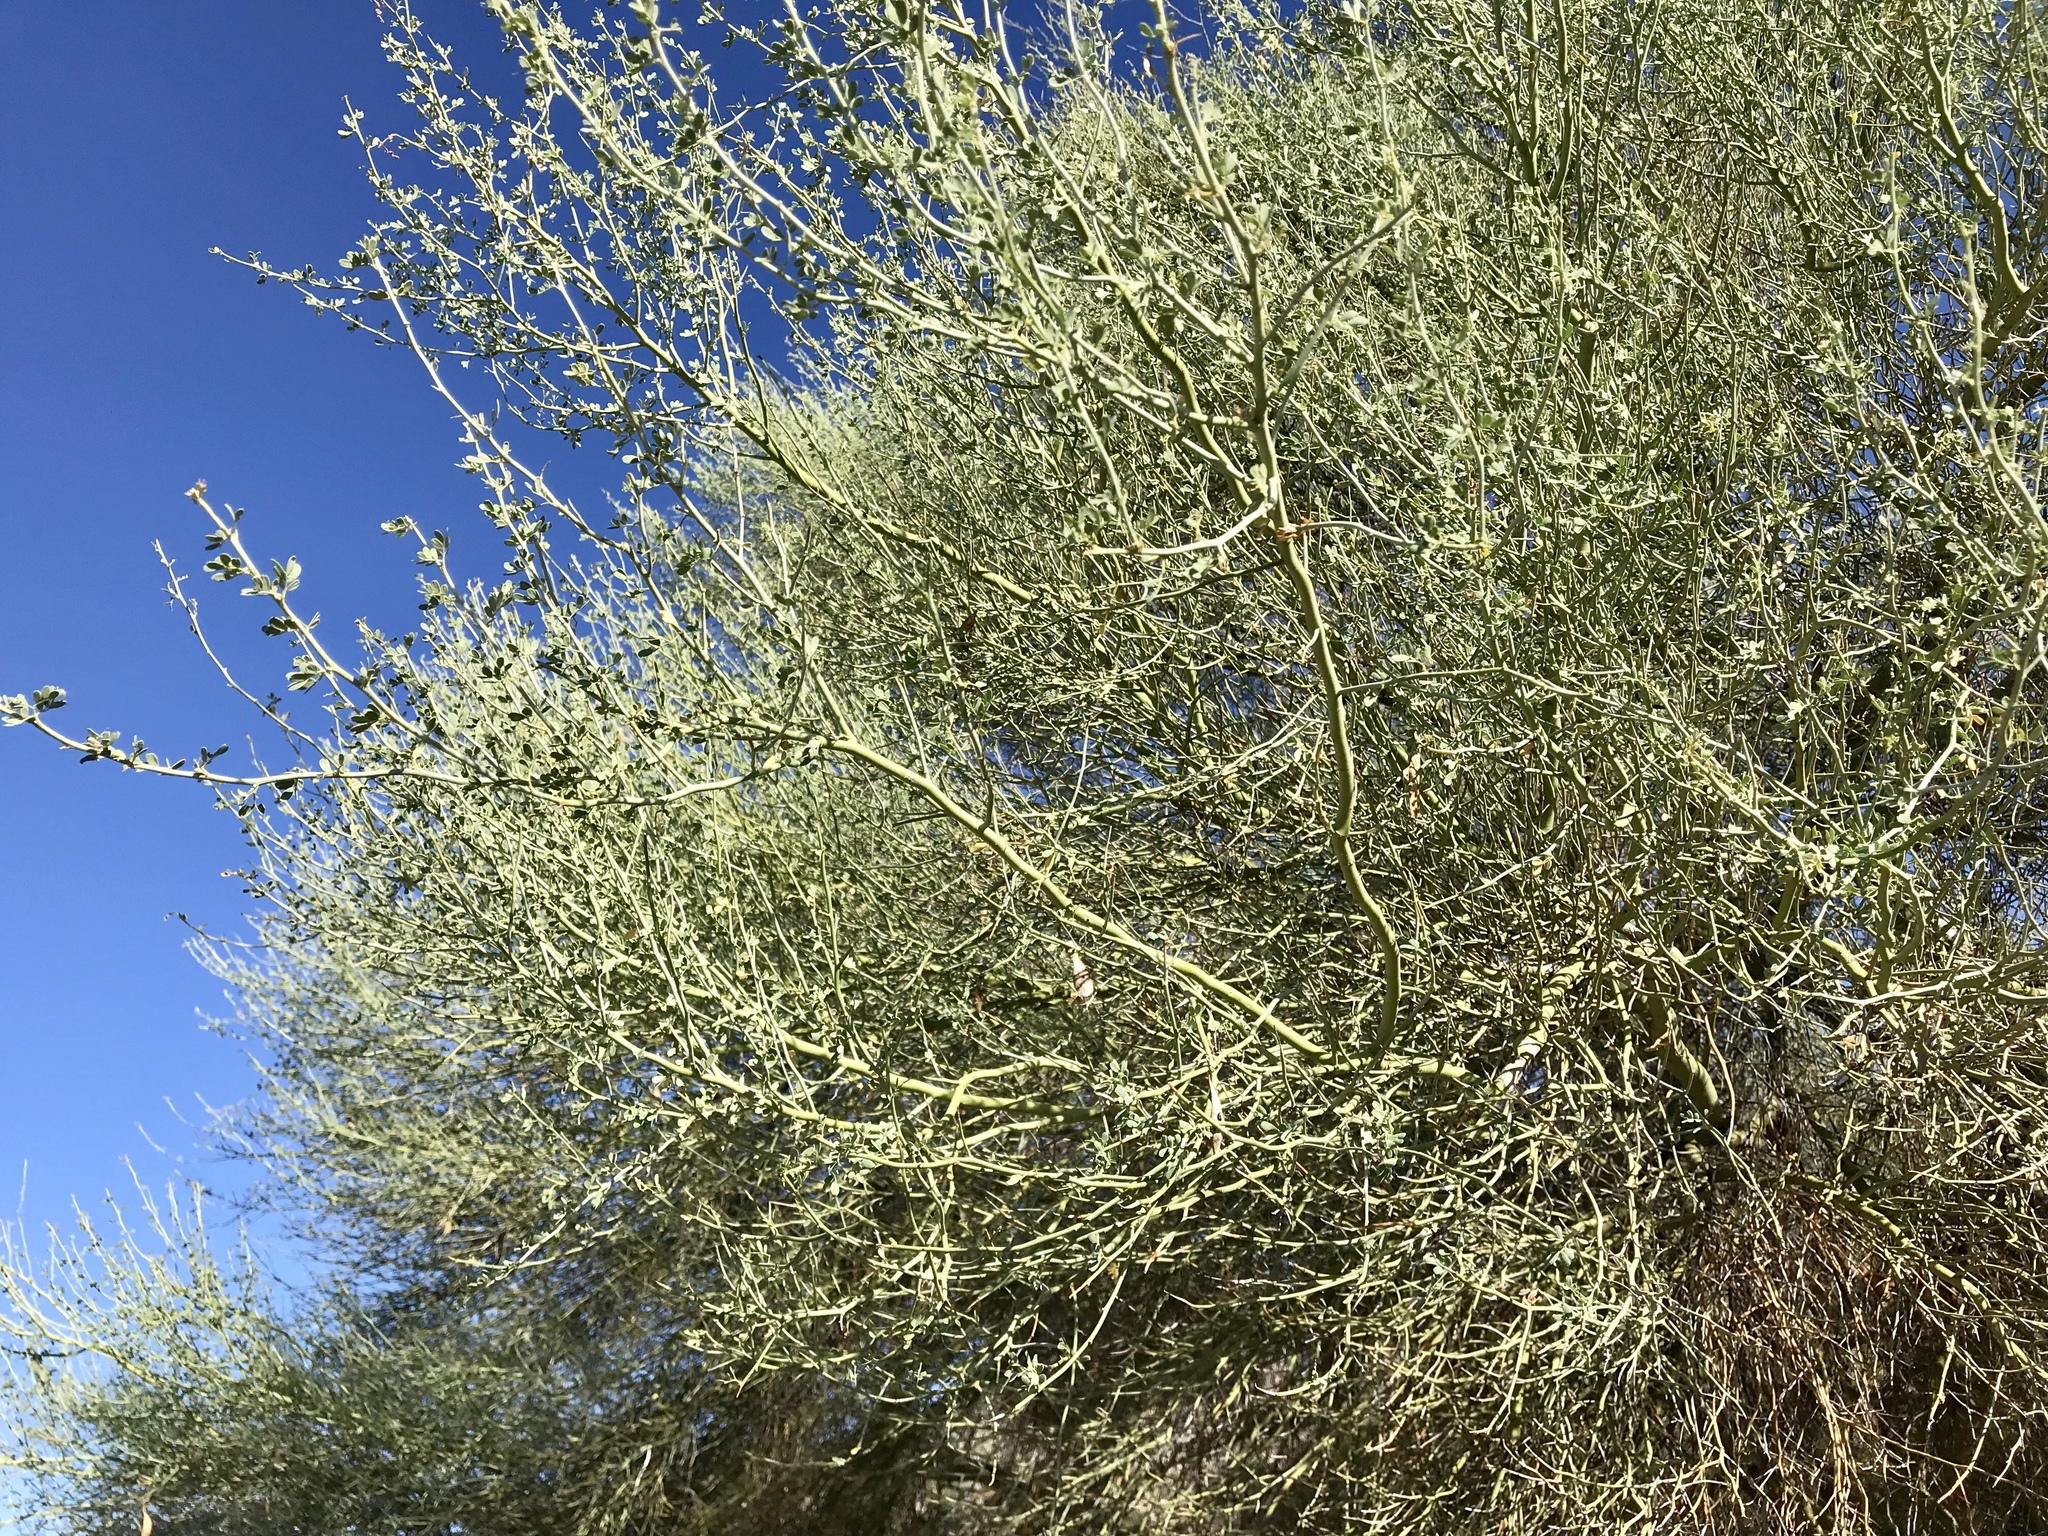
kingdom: Plantae
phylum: Tracheophyta
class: Magnoliopsida
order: Fabales
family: Fabaceae
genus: Parkinsonia
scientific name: Parkinsonia florida
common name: Blue paloverde
